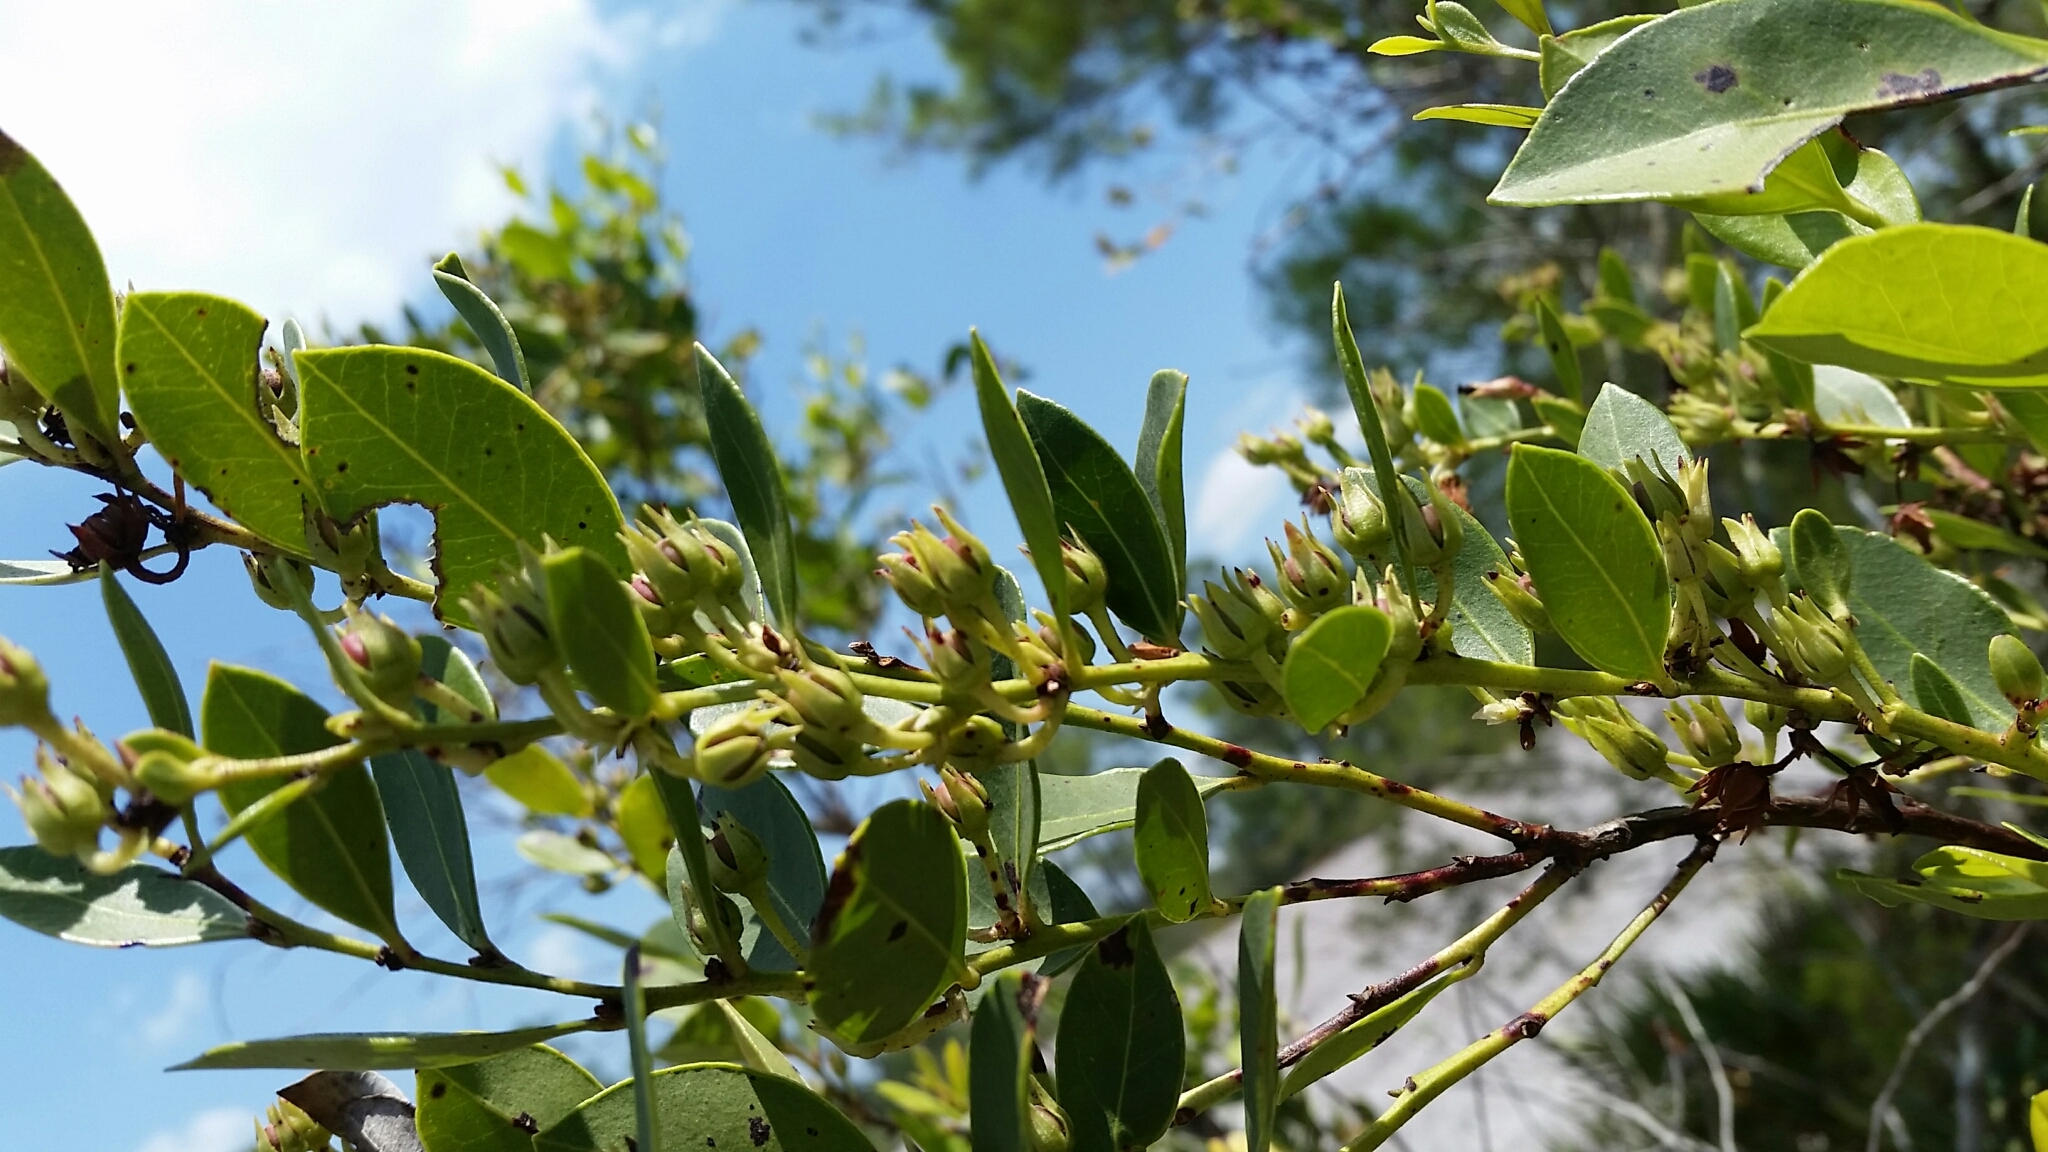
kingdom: Plantae
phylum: Tracheophyta
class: Magnoliopsida
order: Ericales
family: Ericaceae
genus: Lyonia
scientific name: Lyonia lucida
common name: Fetterbush
